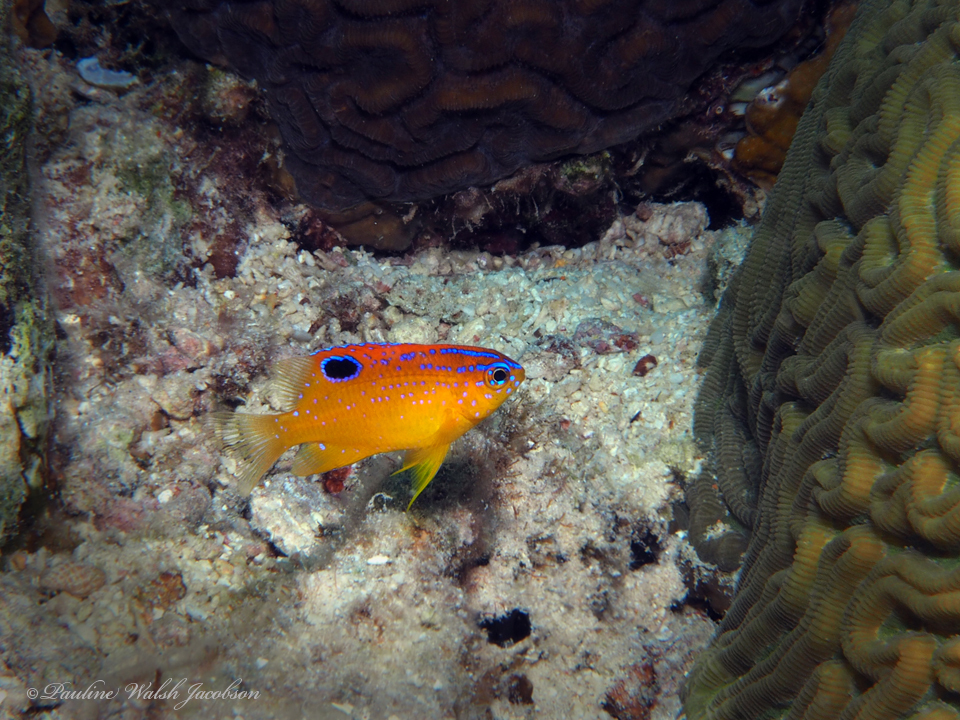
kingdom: Animalia
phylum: Chordata
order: Perciformes
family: Pomacentridae
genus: Stegastes
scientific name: Stegastes diencaeus
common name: Longfin damselfish
